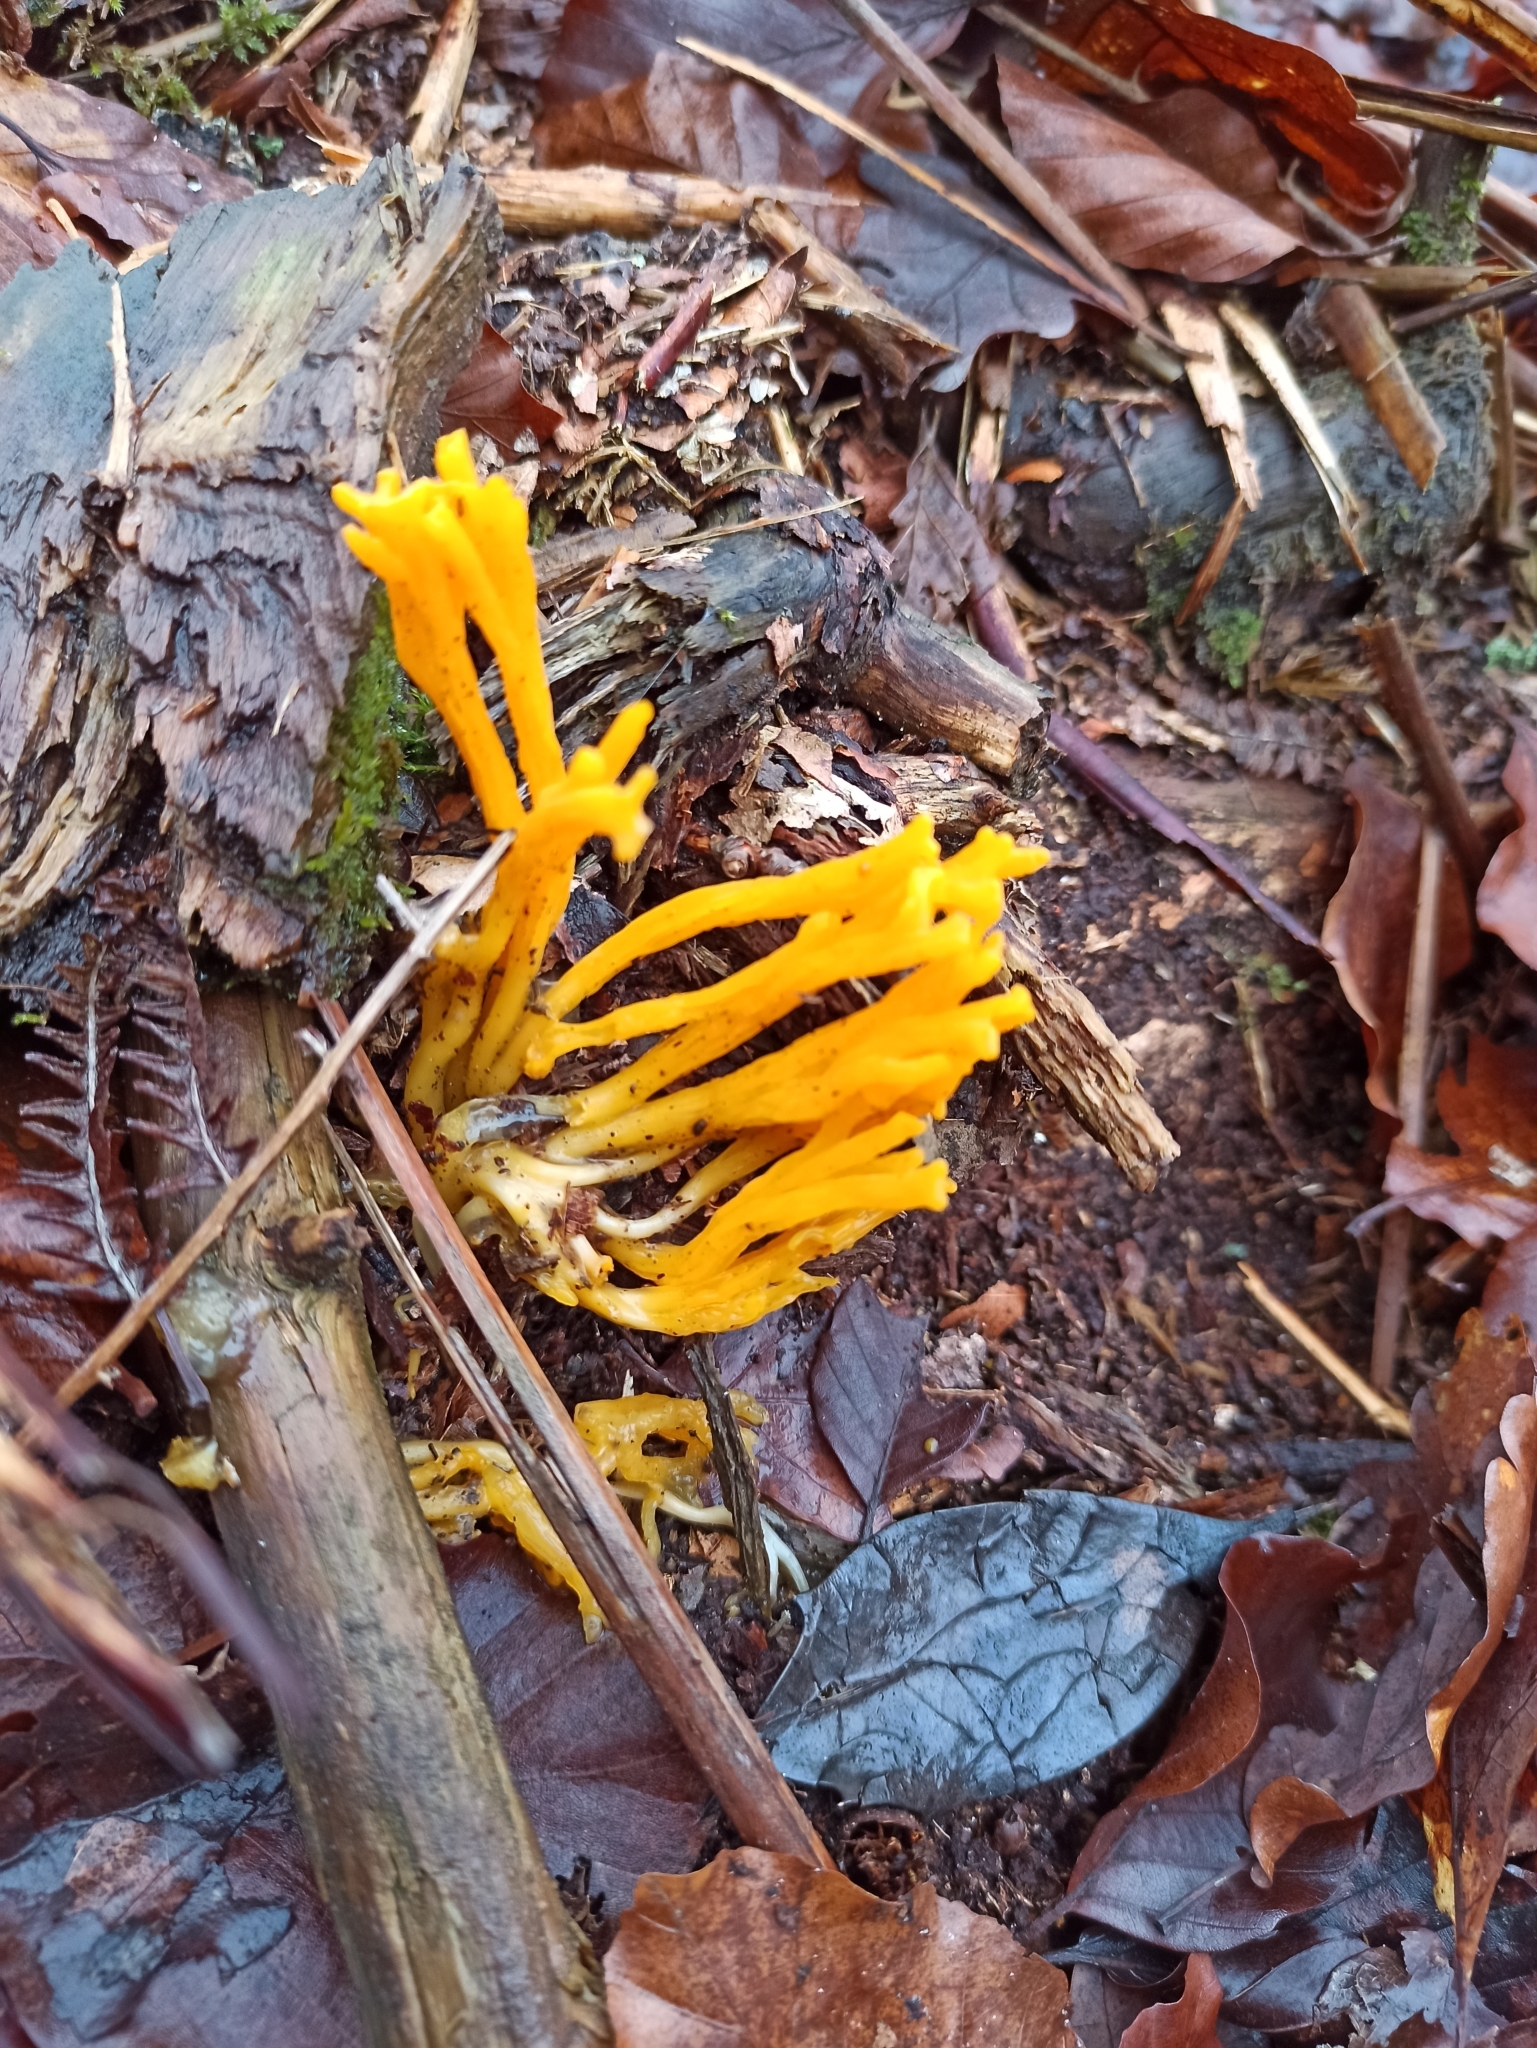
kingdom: Fungi
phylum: Basidiomycota
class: Dacrymycetes
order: Dacrymycetales
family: Dacrymycetaceae
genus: Calocera
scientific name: Calocera viscosa
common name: Yellow stagshorn
